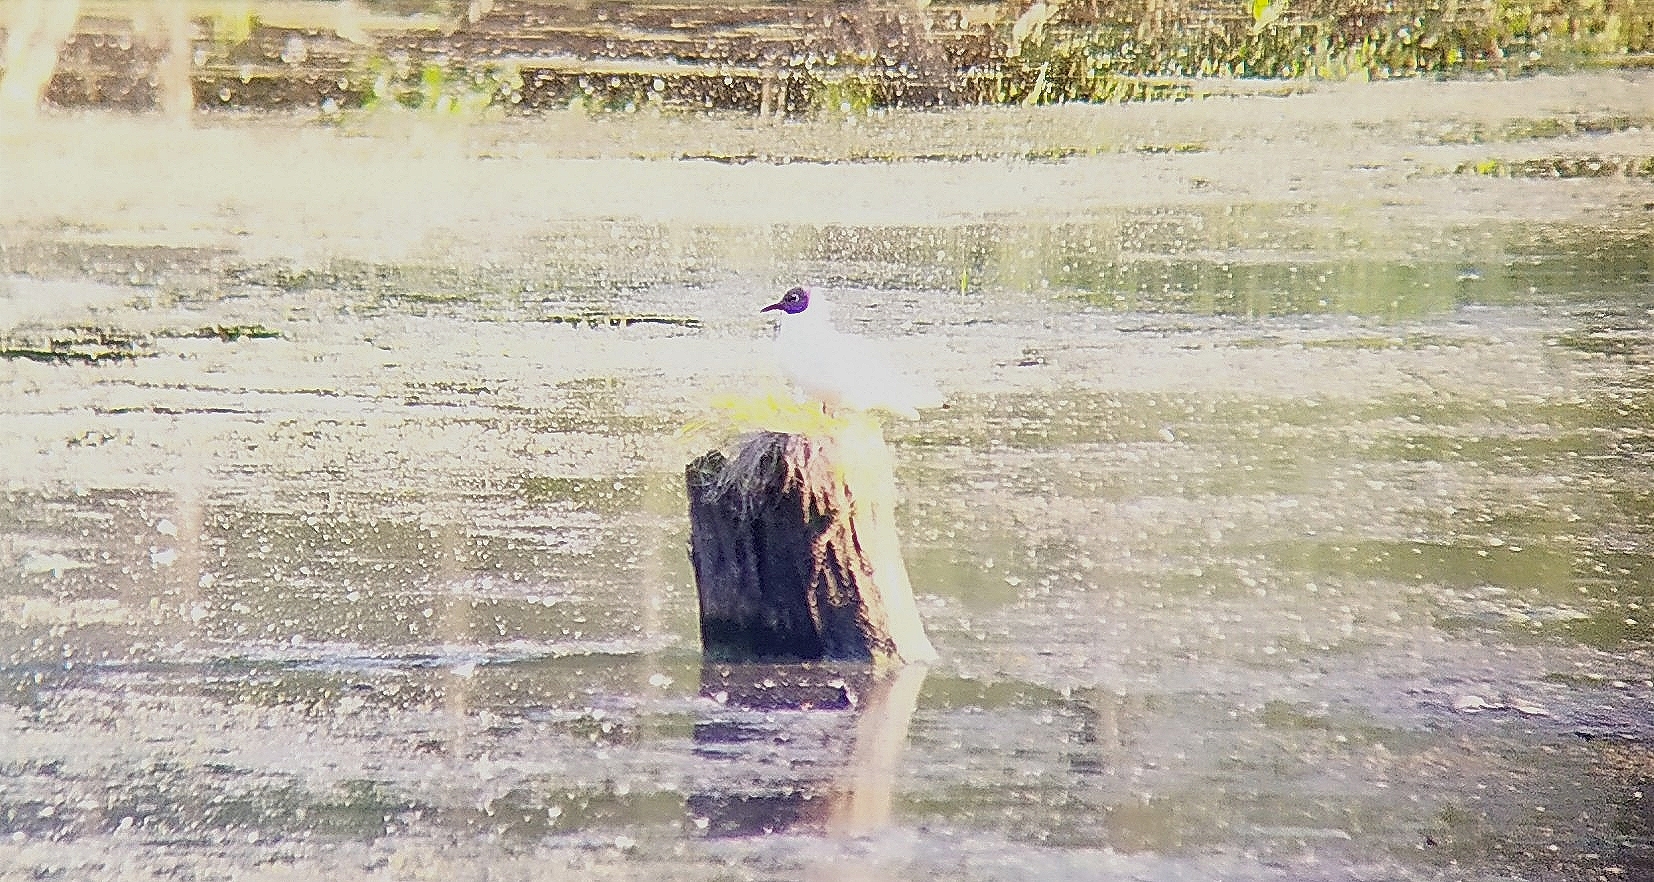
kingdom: Animalia
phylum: Chordata
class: Aves
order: Charadriiformes
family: Laridae
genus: Chroicocephalus
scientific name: Chroicocephalus ridibundus
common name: Black-headed gull
